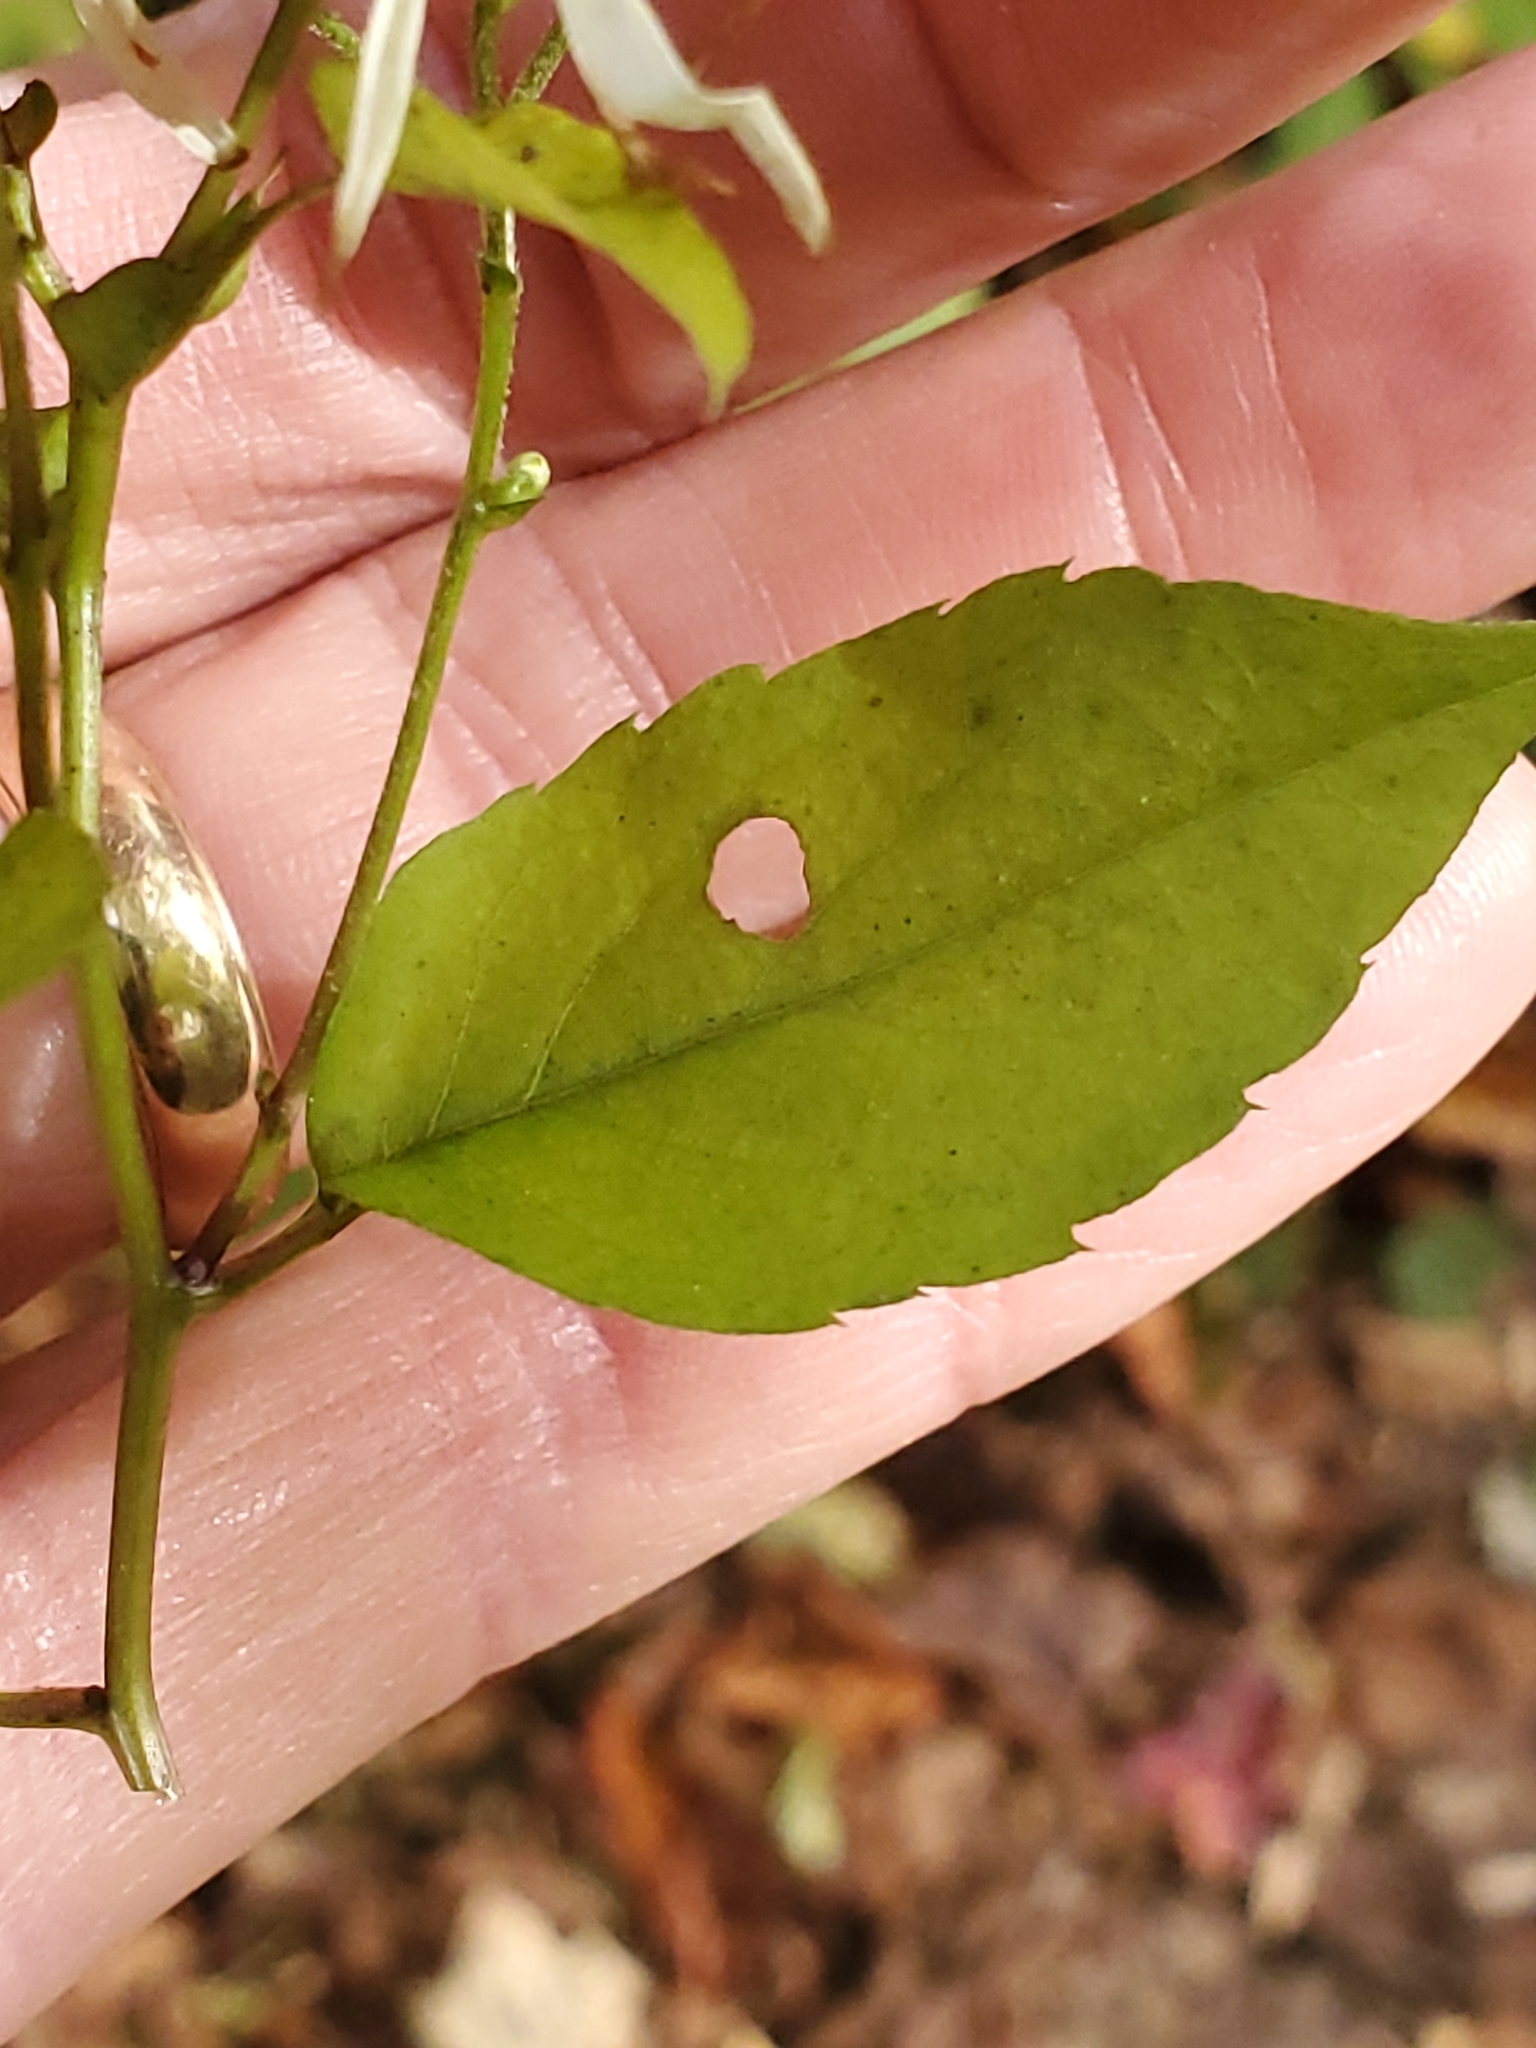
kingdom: Plantae
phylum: Tracheophyta
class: Magnoliopsida
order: Asterales
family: Asteraceae
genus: Eurybia
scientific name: Eurybia divaricata
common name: White wood aster
